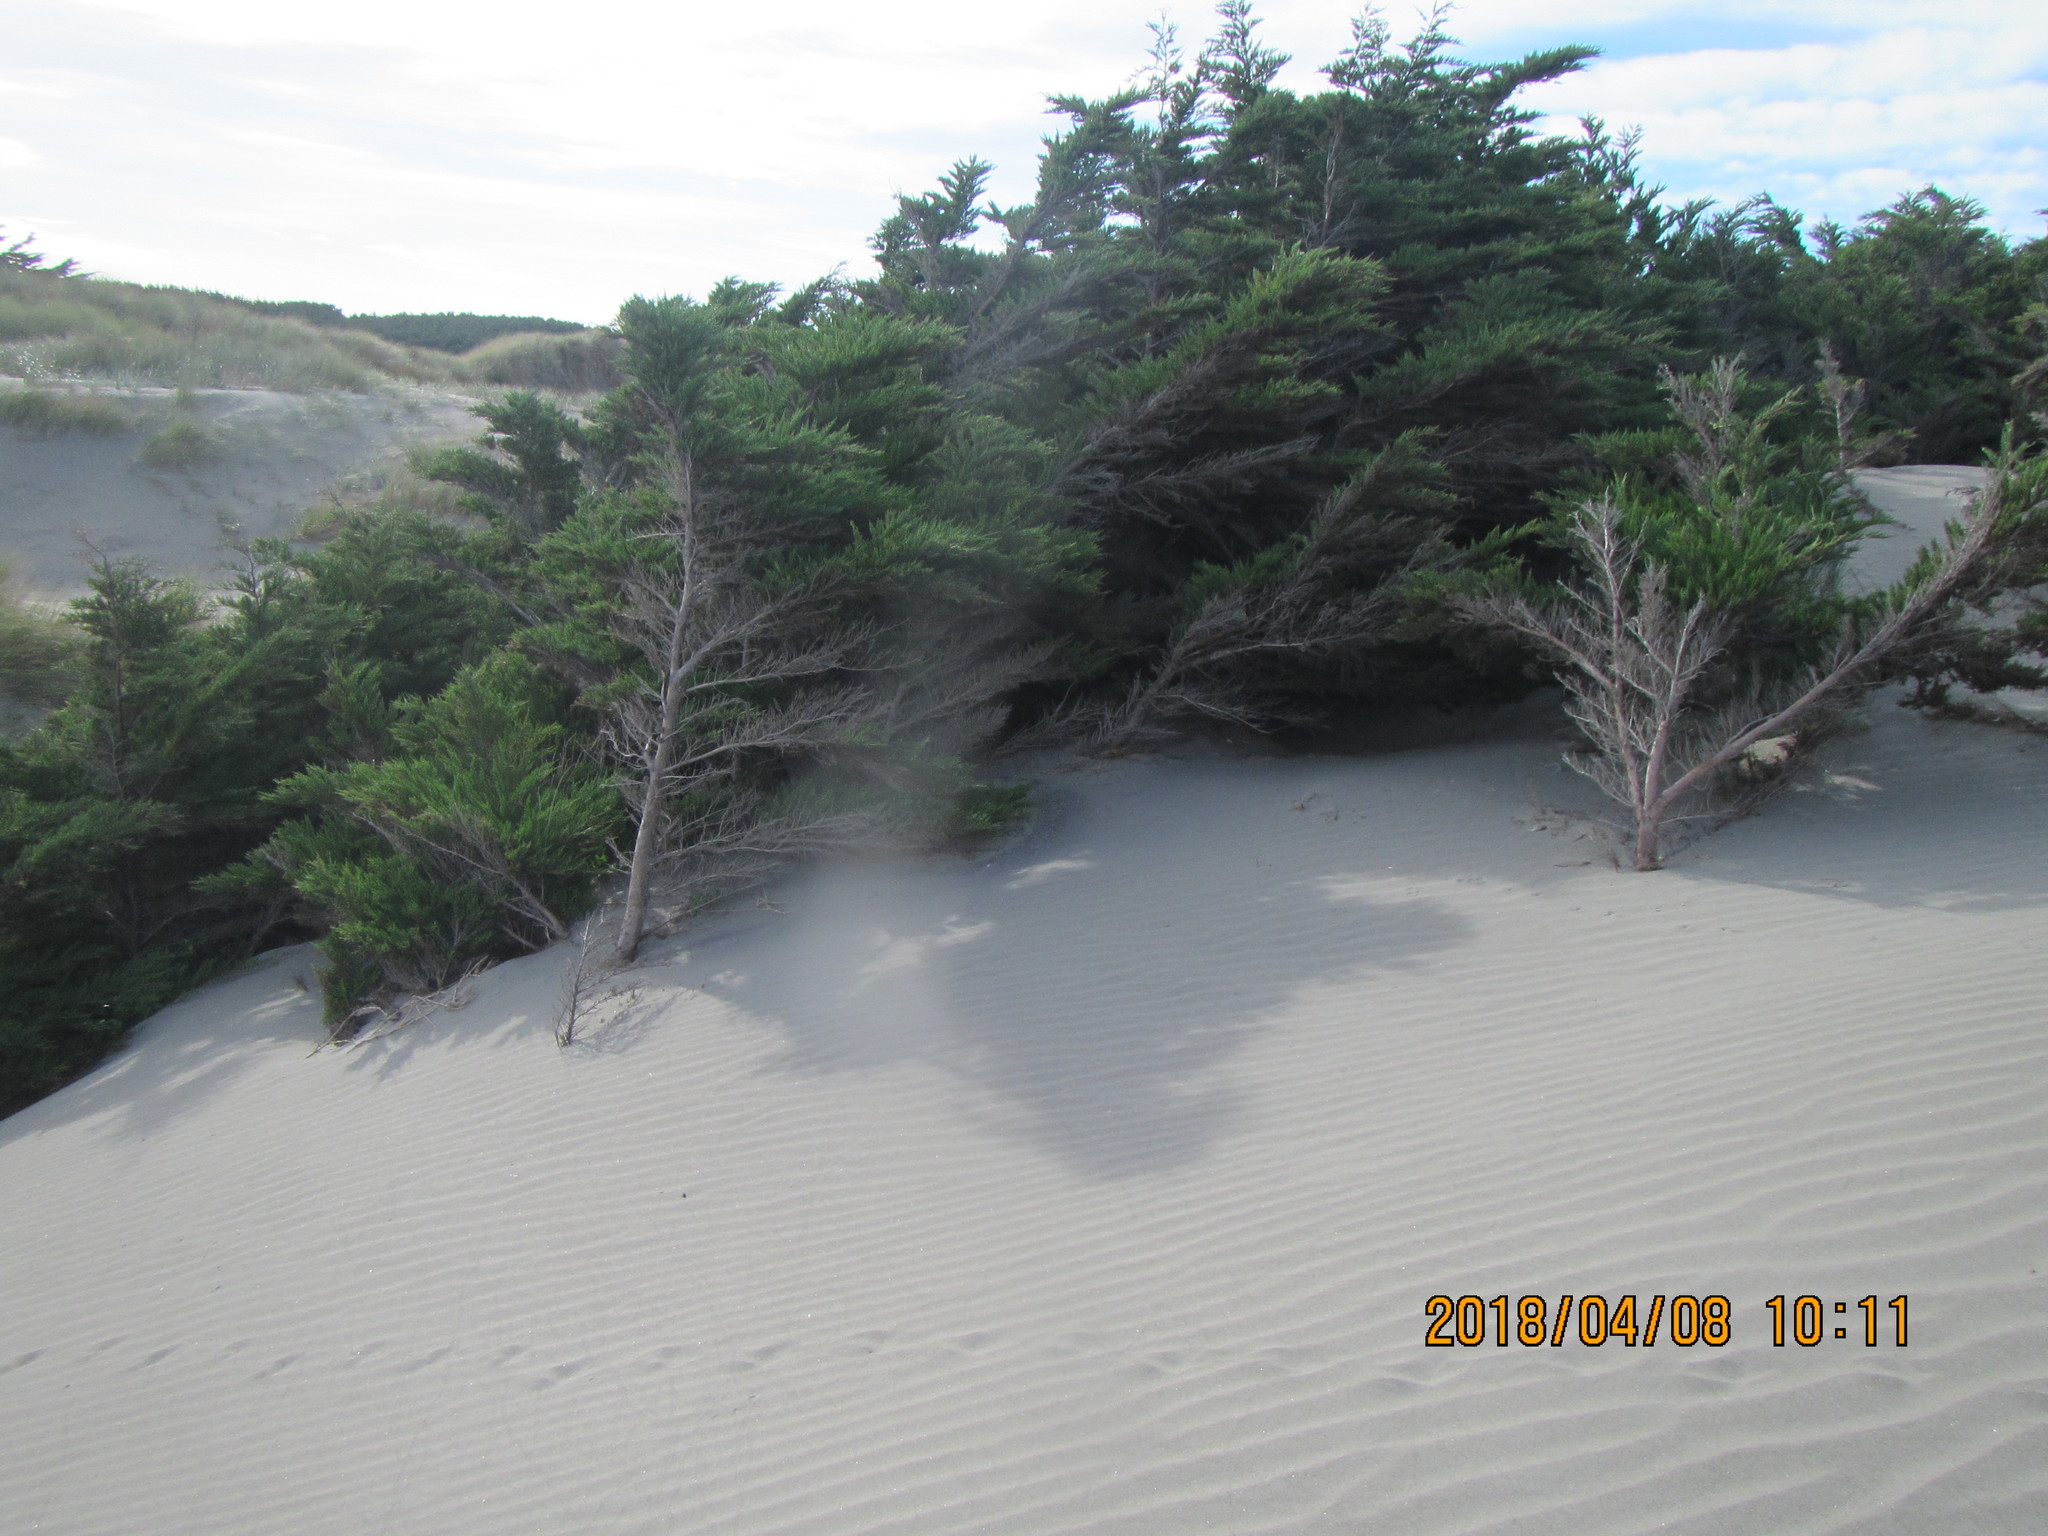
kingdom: Plantae
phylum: Tracheophyta
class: Pinopsida
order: Pinales
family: Cupressaceae
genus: Cupressus
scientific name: Cupressus macrocarpa
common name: Monterey cypress
